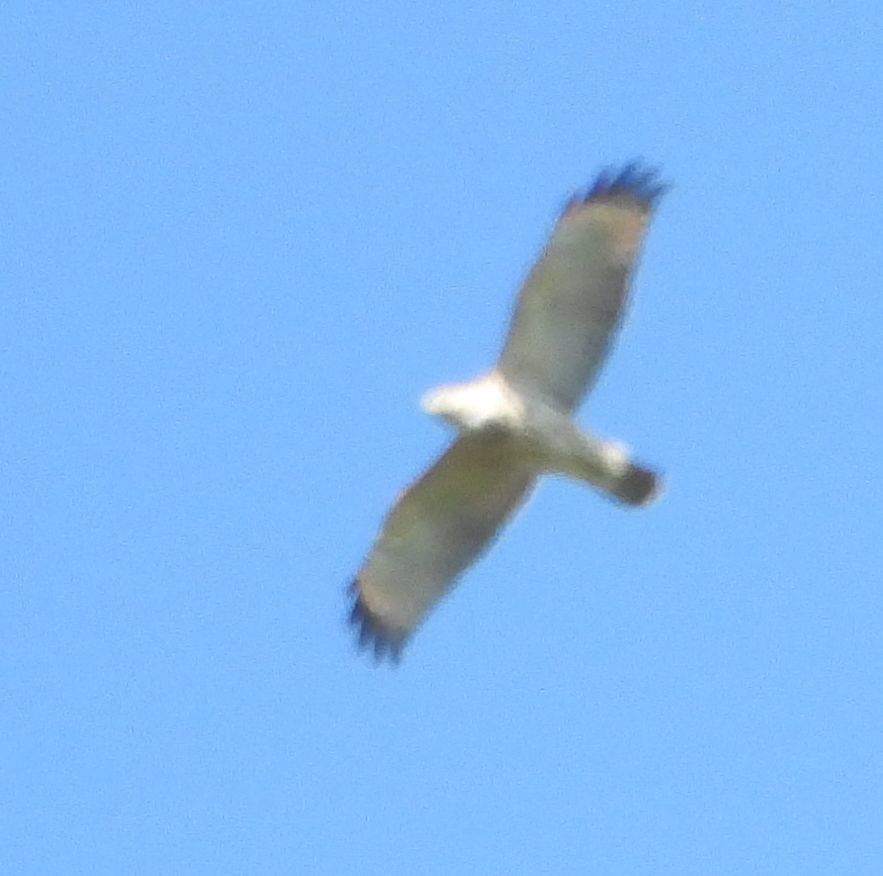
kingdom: Animalia
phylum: Chordata
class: Aves
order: Accipitriformes
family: Accipitridae
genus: Buteo
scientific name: Buteo lineatus
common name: Red-shouldered hawk
